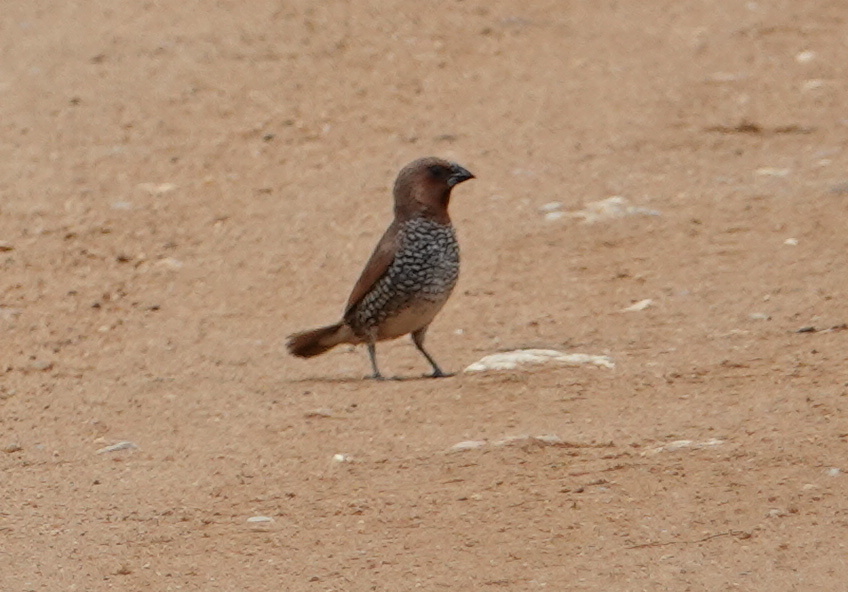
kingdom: Animalia
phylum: Chordata
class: Aves
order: Passeriformes
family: Estrildidae
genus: Lonchura
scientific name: Lonchura punctulata
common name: Scaly-breasted munia
